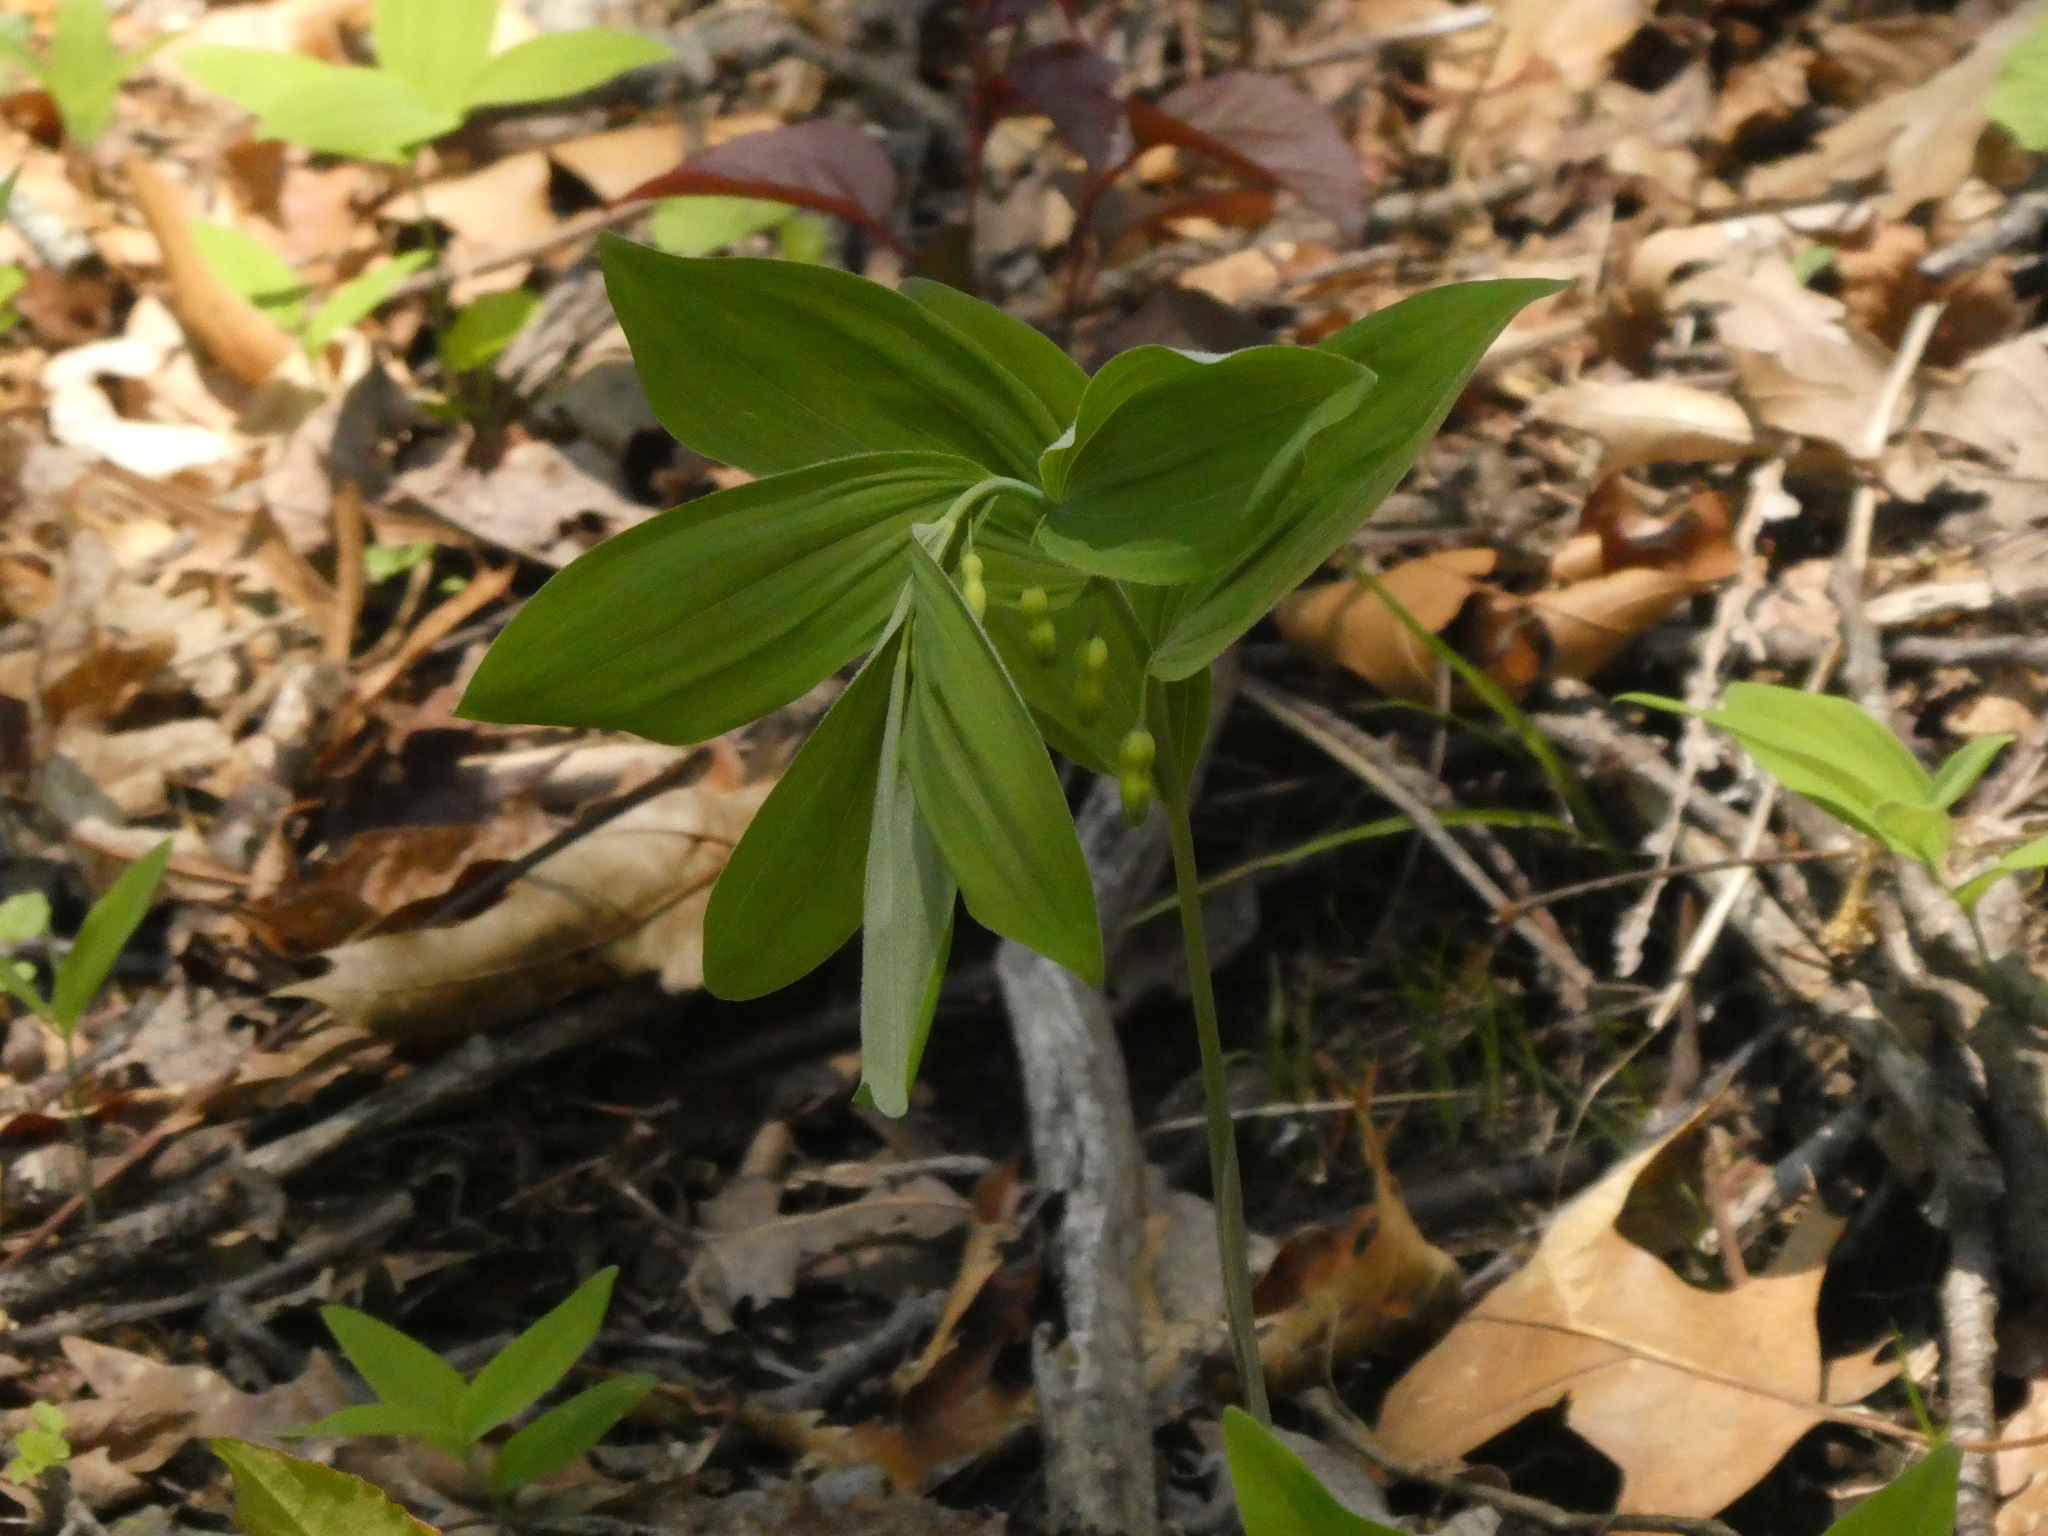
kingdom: Plantae
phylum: Tracheophyta
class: Liliopsida
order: Asparagales
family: Asparagaceae
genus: Polygonatum
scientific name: Polygonatum pubescens
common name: Downy solomon's seal
